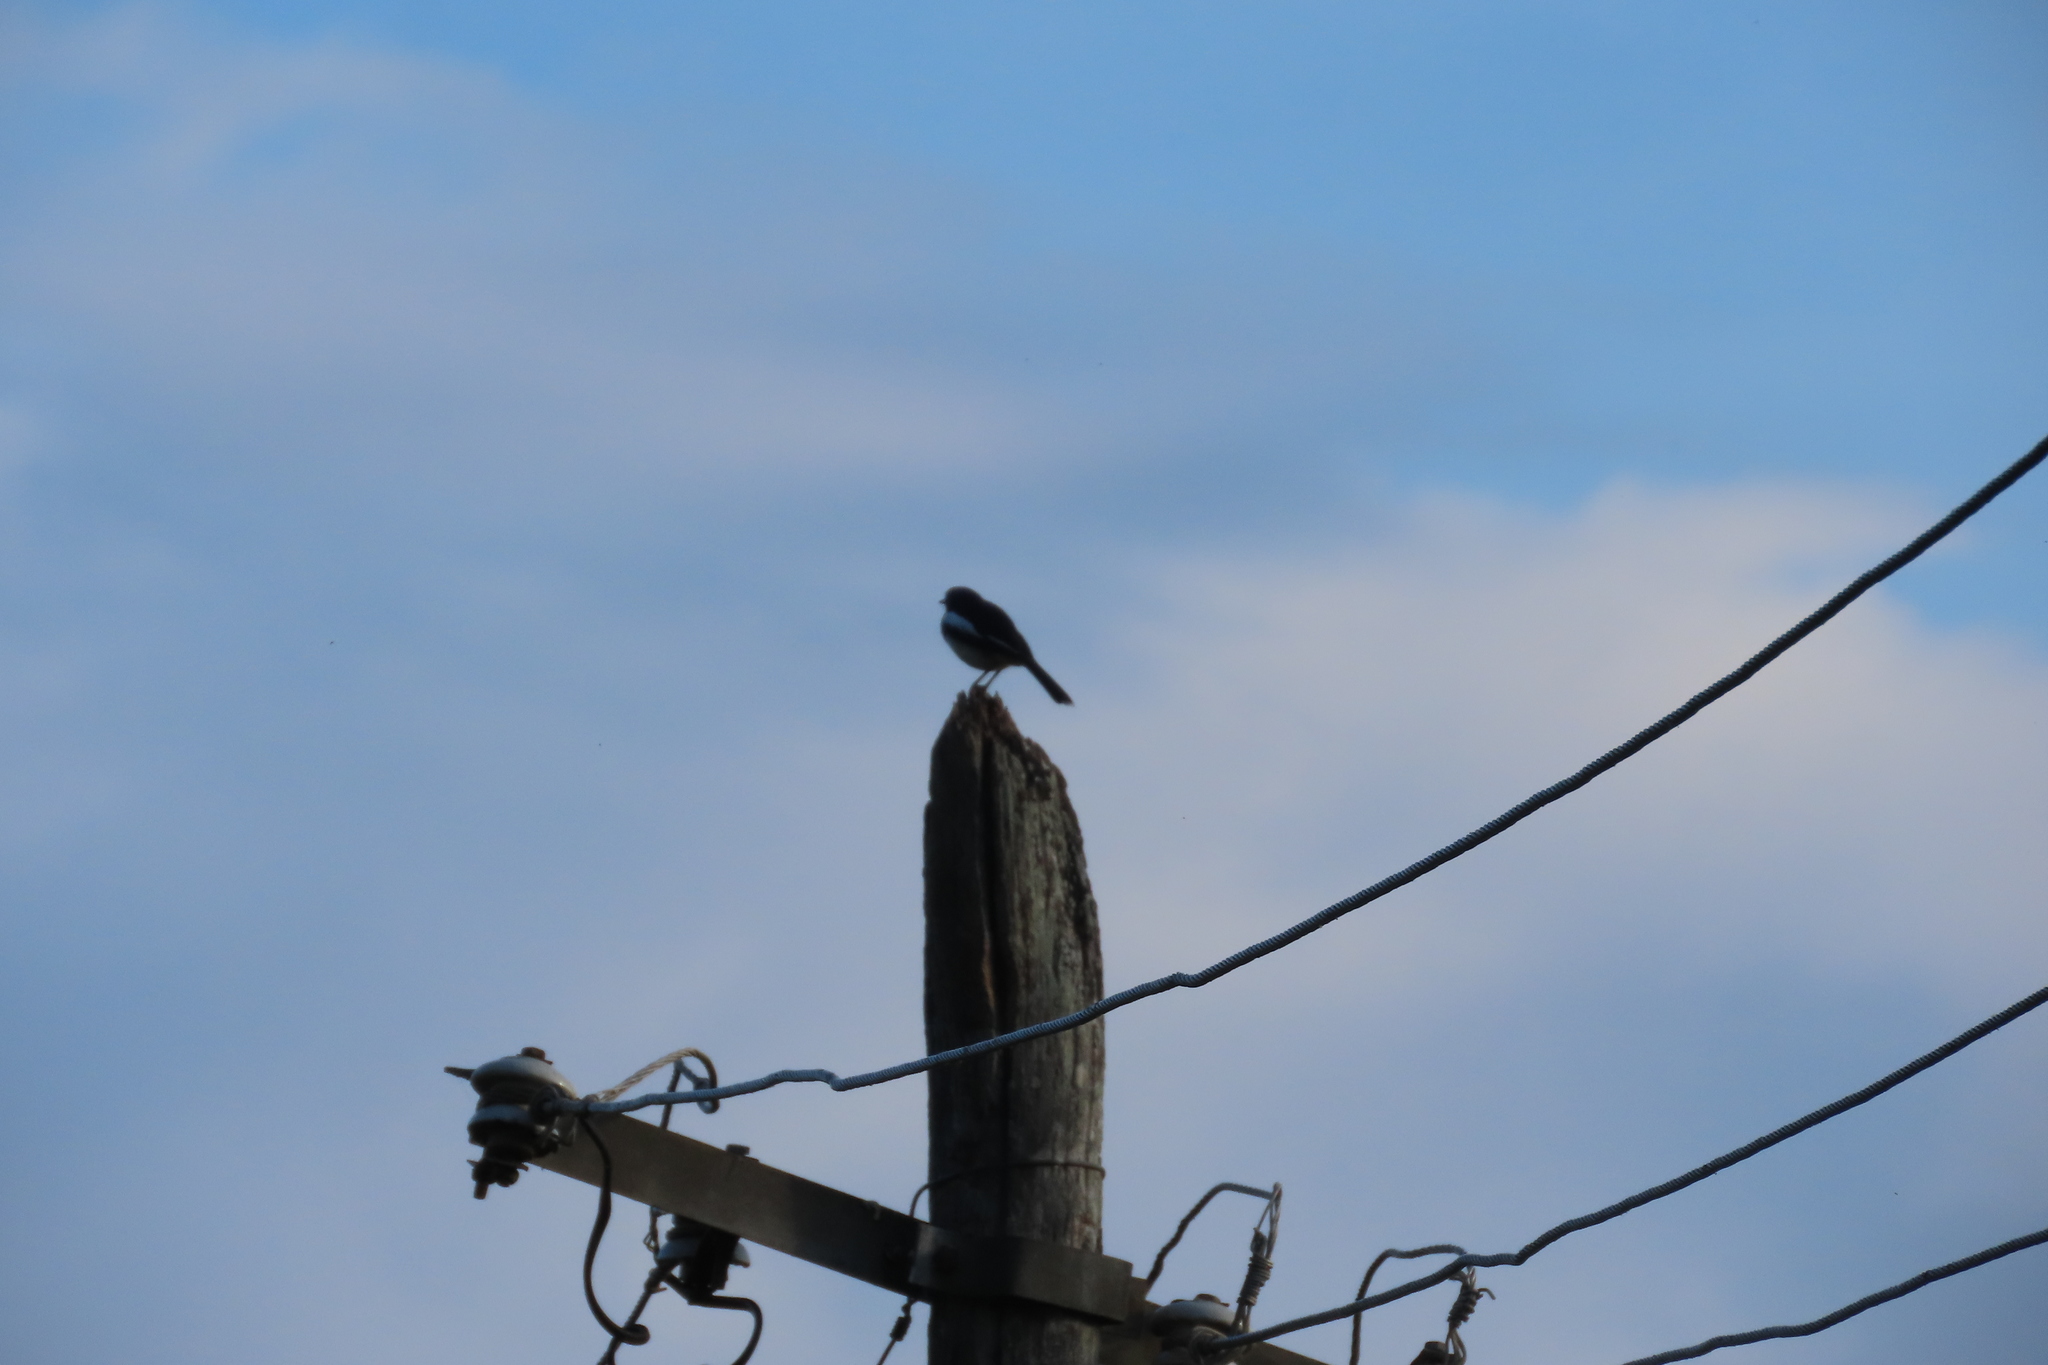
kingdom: Animalia
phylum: Chordata
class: Aves
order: Passeriformes
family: Muscicapidae
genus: Copsychus
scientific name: Copsychus saularis
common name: Oriental magpie-robin
